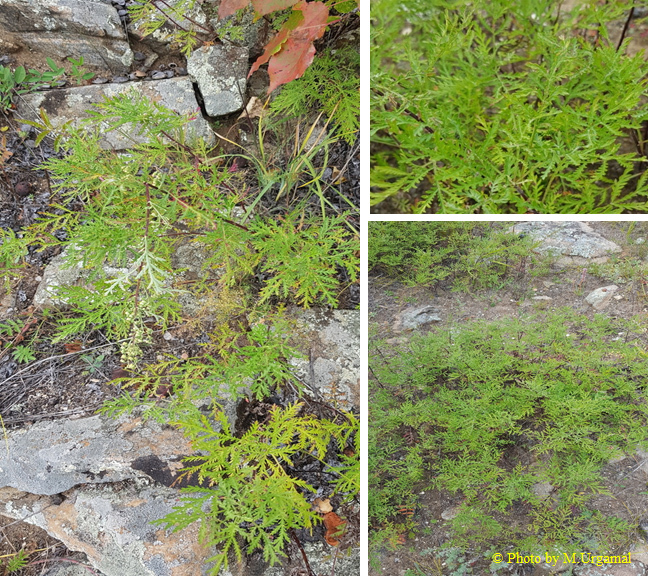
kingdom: Plantae
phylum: Tracheophyta
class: Magnoliopsida
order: Asterales
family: Asteraceae
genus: Artemisia
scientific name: Artemisia gmelinii
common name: Gmelin's wormwood
